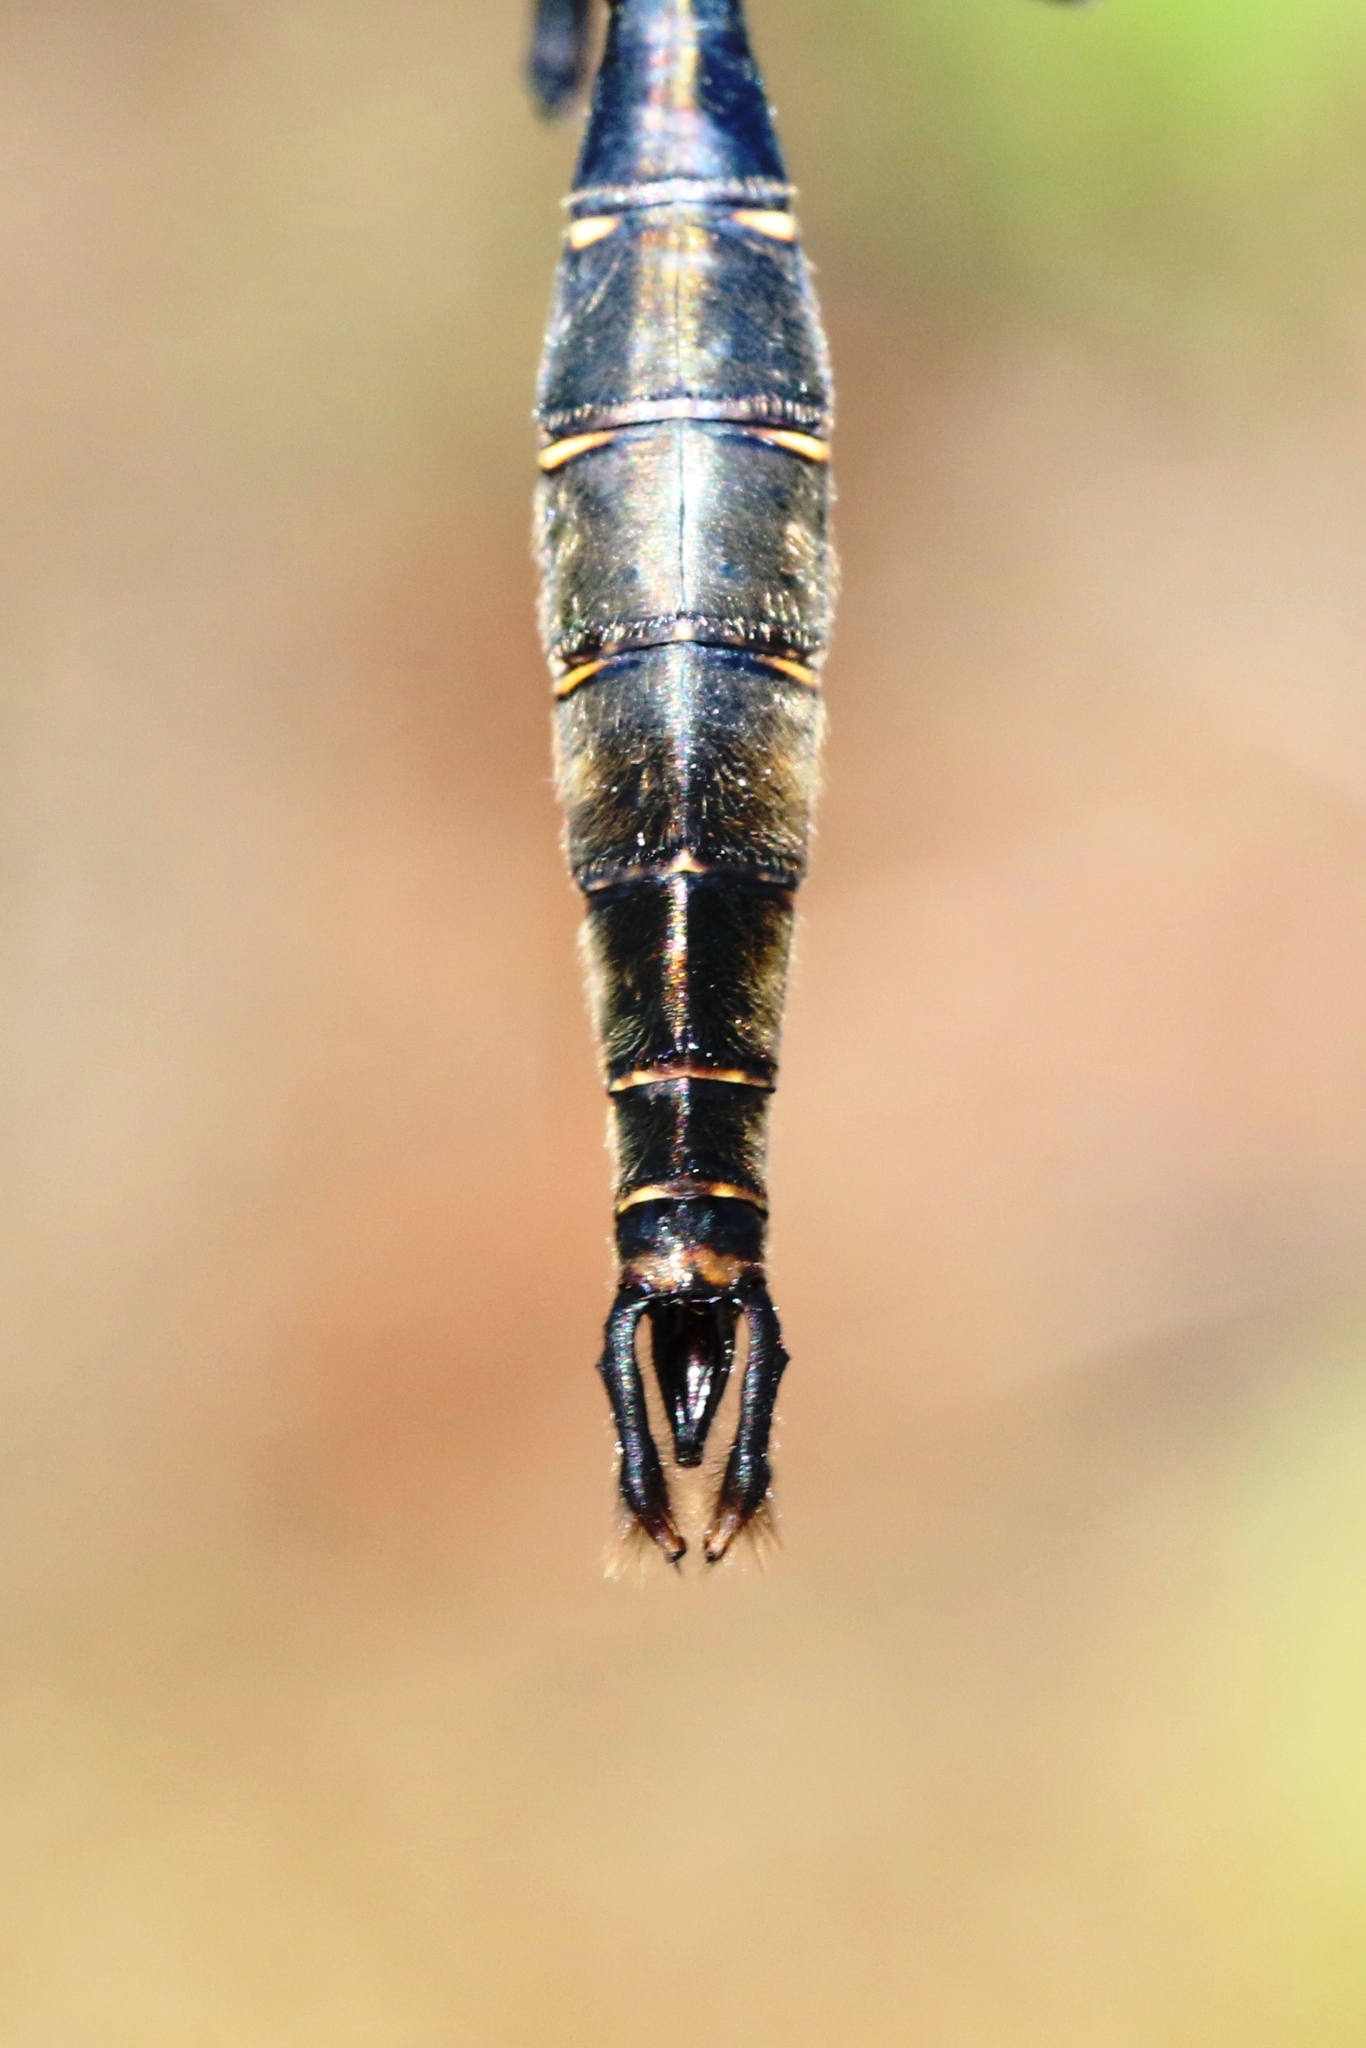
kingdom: Animalia
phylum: Arthropoda
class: Insecta
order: Odonata
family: Corduliidae
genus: Somatochlora
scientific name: Somatochlora walshii
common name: Brush-tipped emerald
